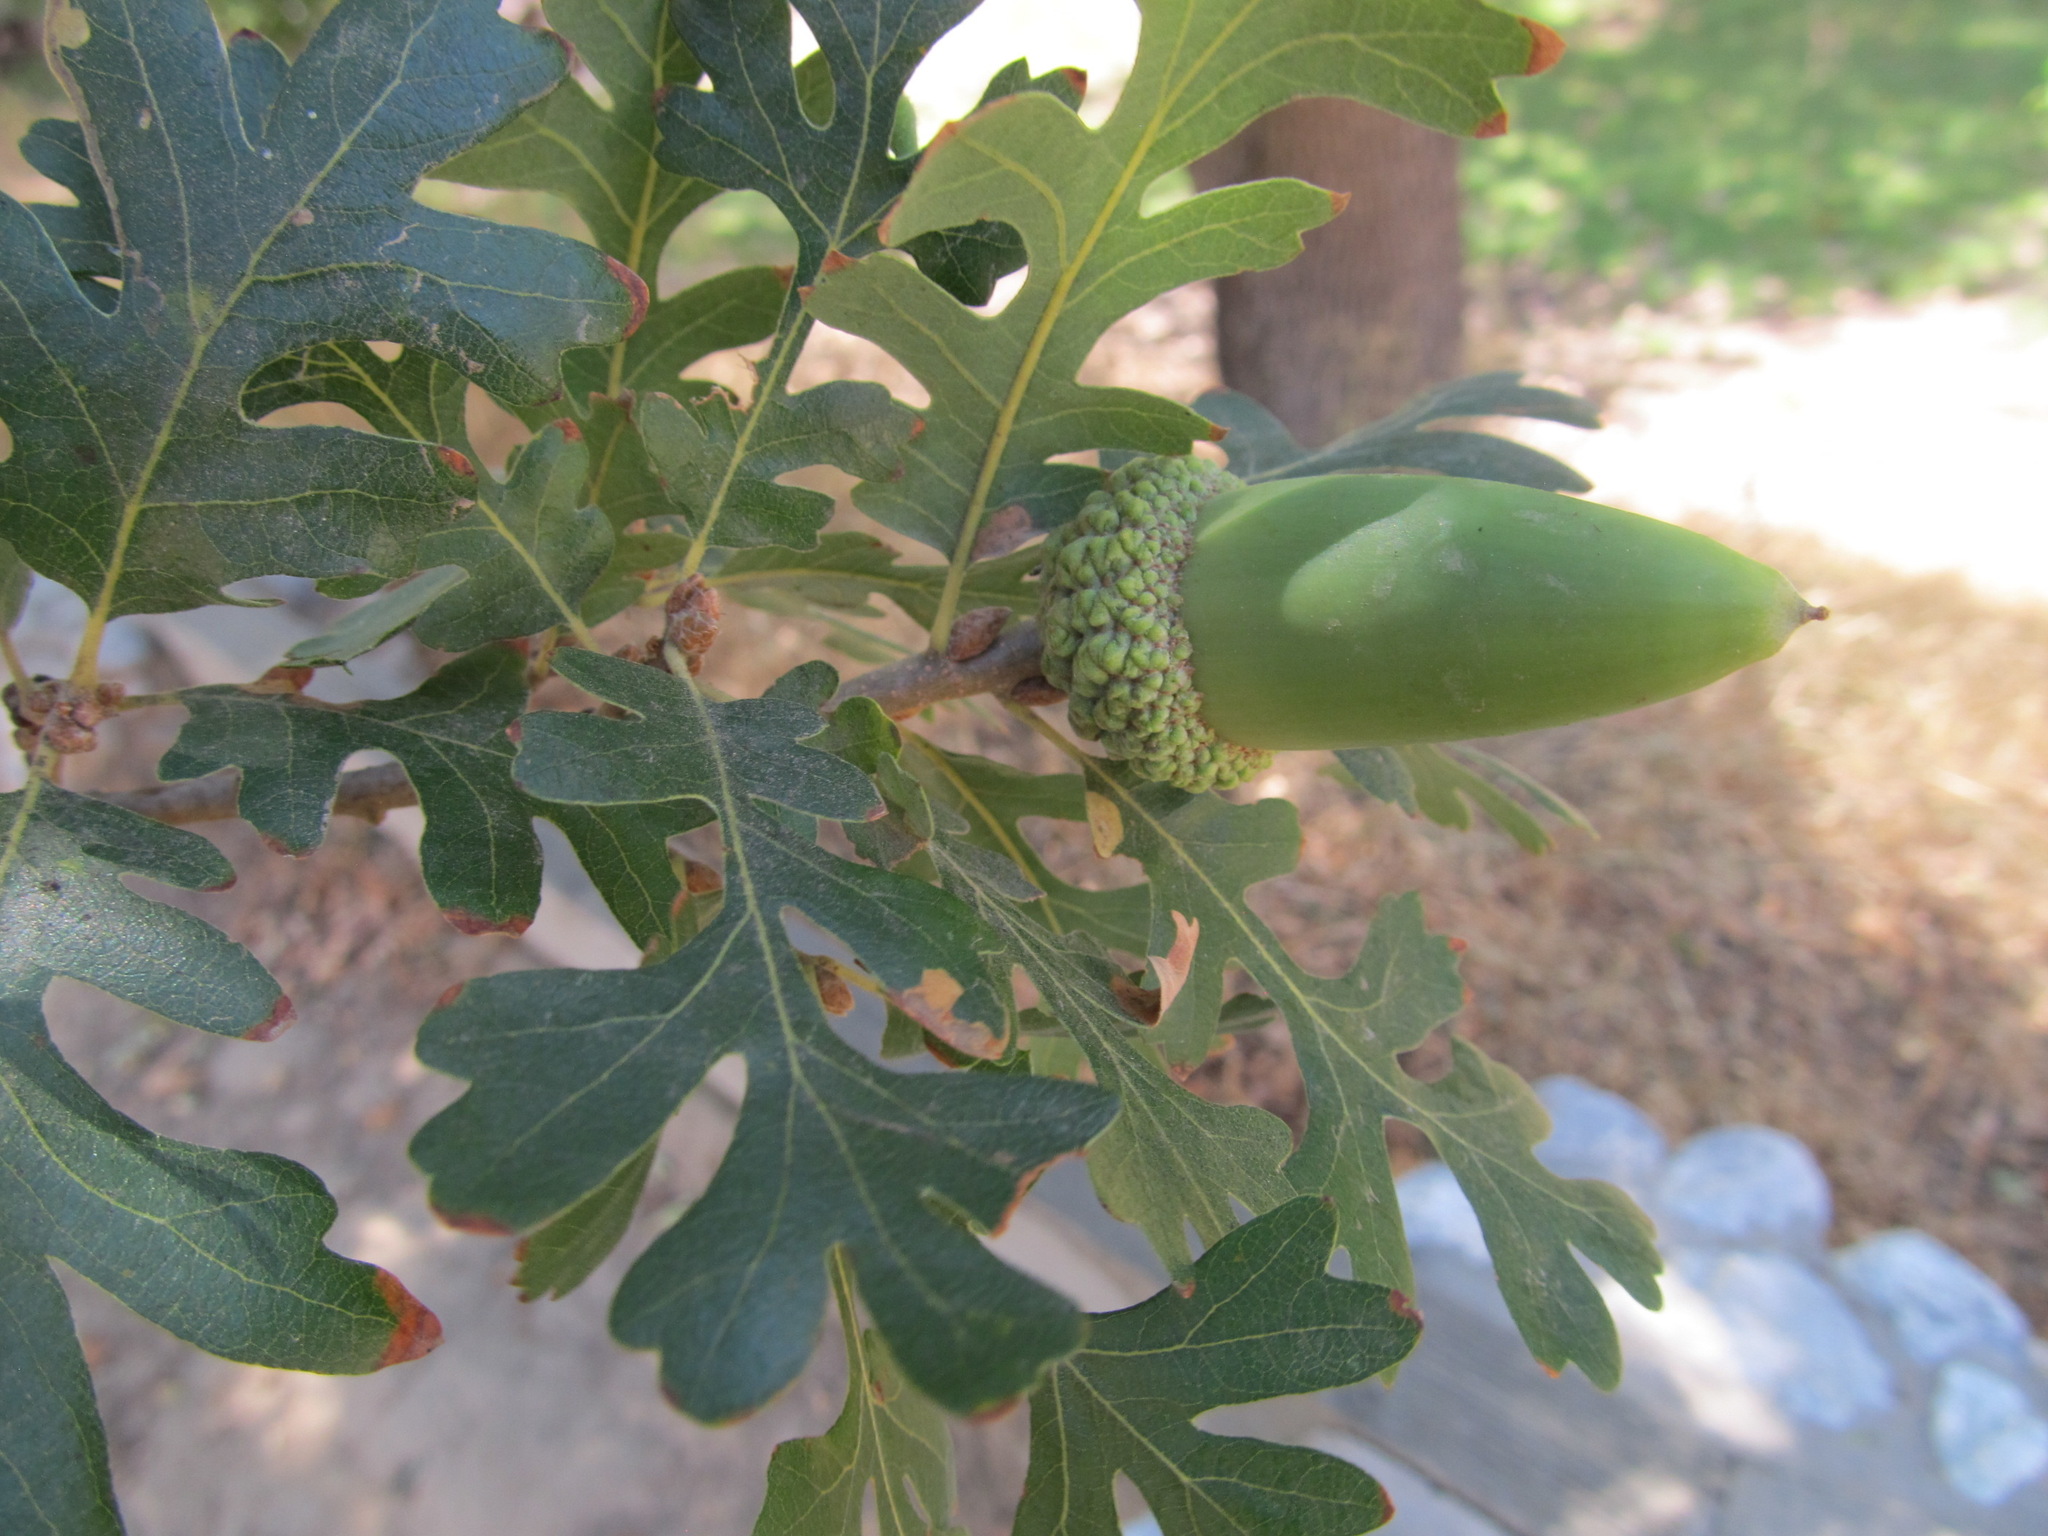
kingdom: Plantae
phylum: Tracheophyta
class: Magnoliopsida
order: Fagales
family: Fagaceae
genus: Quercus
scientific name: Quercus lobata
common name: Valley oak
